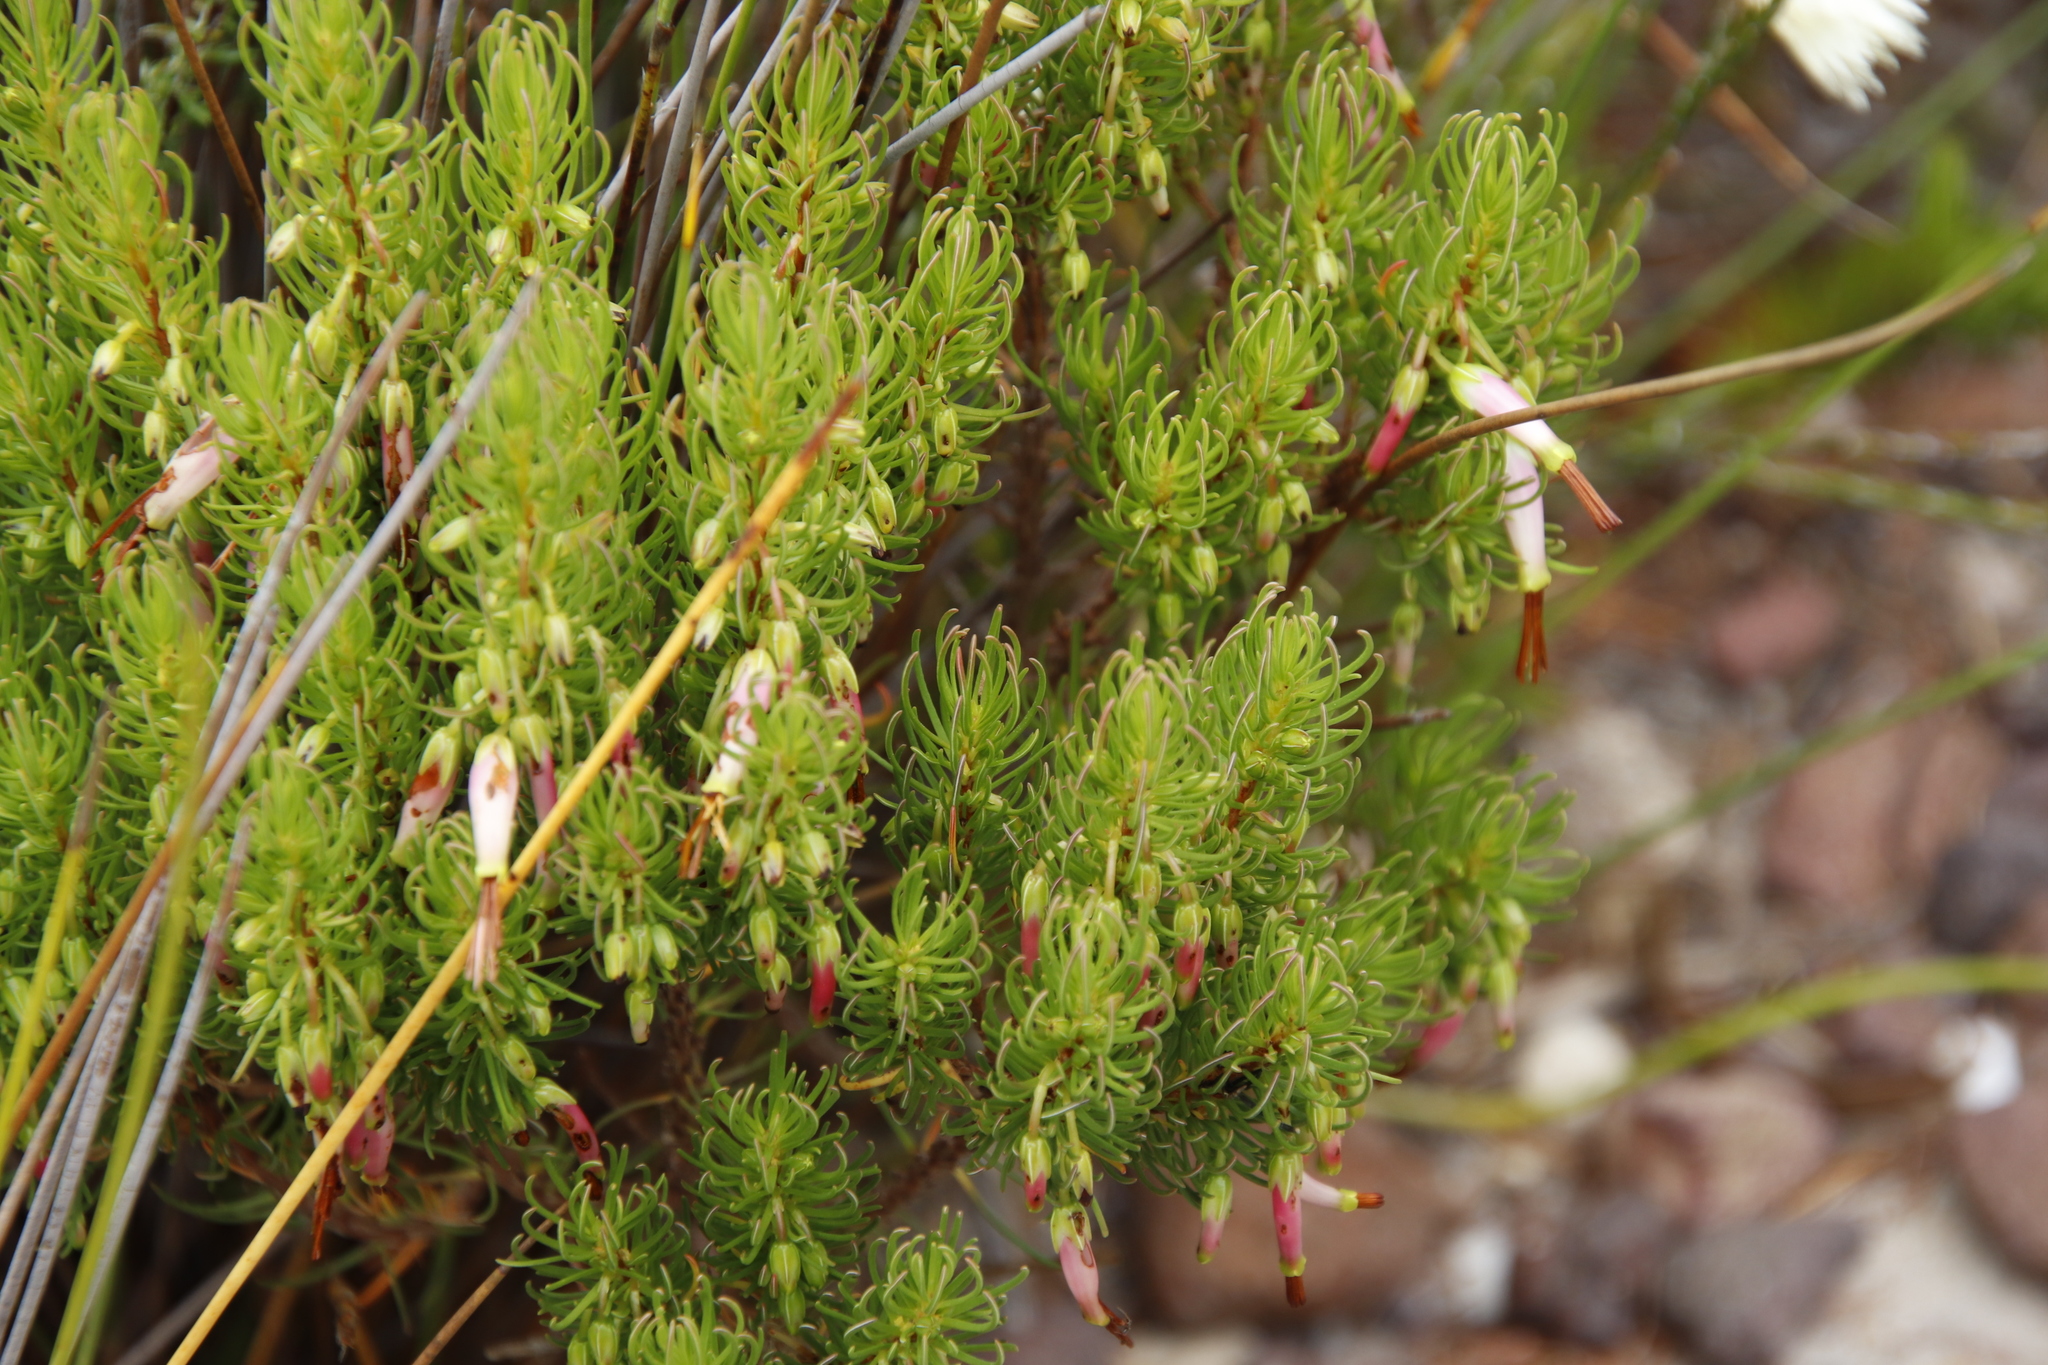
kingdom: Plantae
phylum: Tracheophyta
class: Magnoliopsida
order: Ericales
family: Ericaceae
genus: Erica
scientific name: Erica plukenetii
